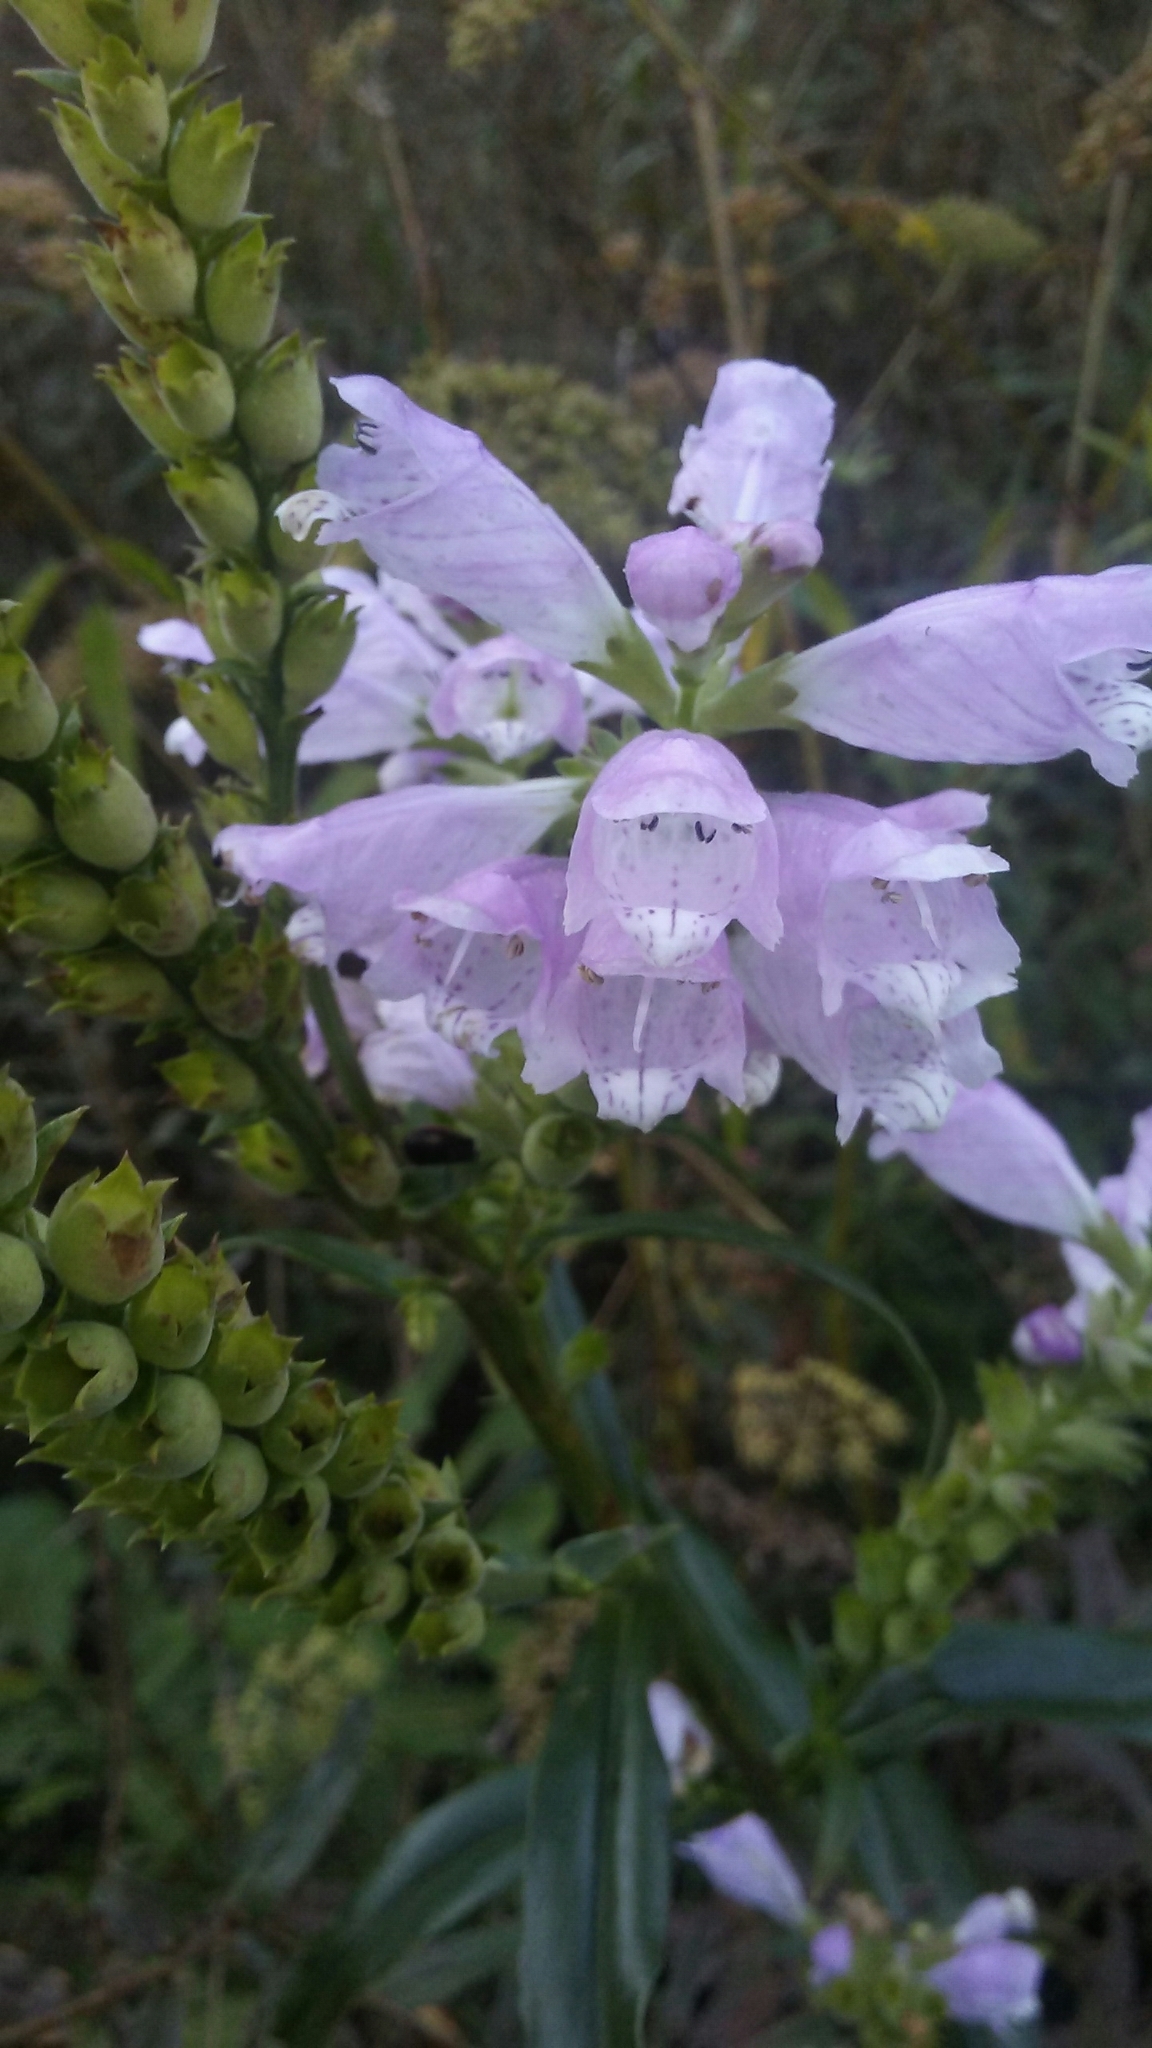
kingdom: Plantae
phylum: Tracheophyta
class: Magnoliopsida
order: Lamiales
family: Lamiaceae
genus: Physostegia
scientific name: Physostegia virginiana
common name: Obedient-plant
